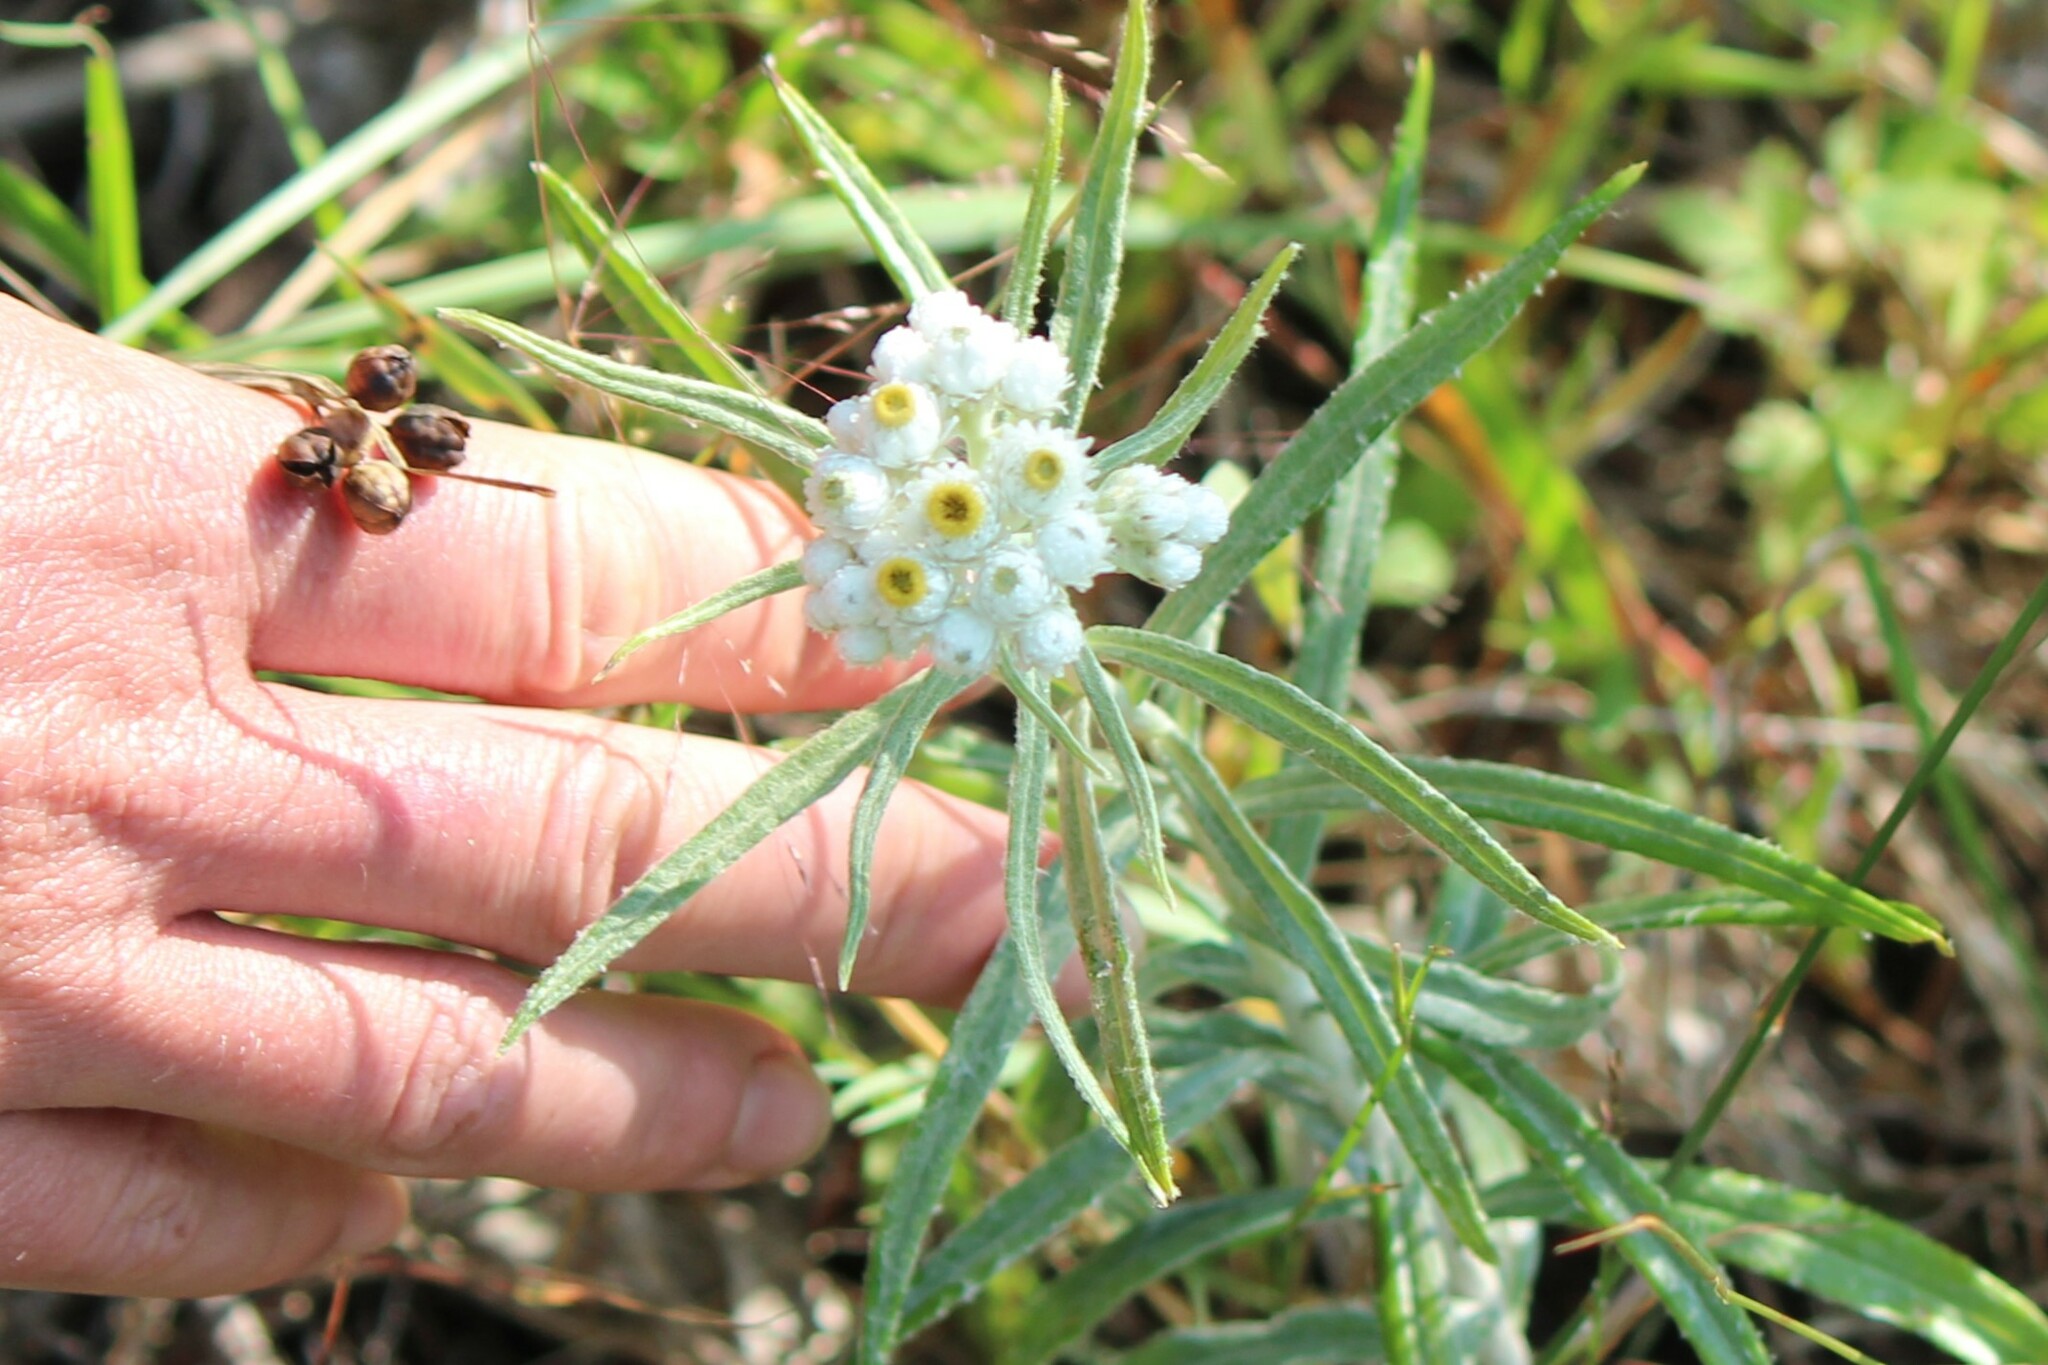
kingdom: Plantae
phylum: Tracheophyta
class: Magnoliopsida
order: Asterales
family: Asteraceae
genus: Anaphalis
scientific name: Anaphalis margaritacea
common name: Pearly everlasting
